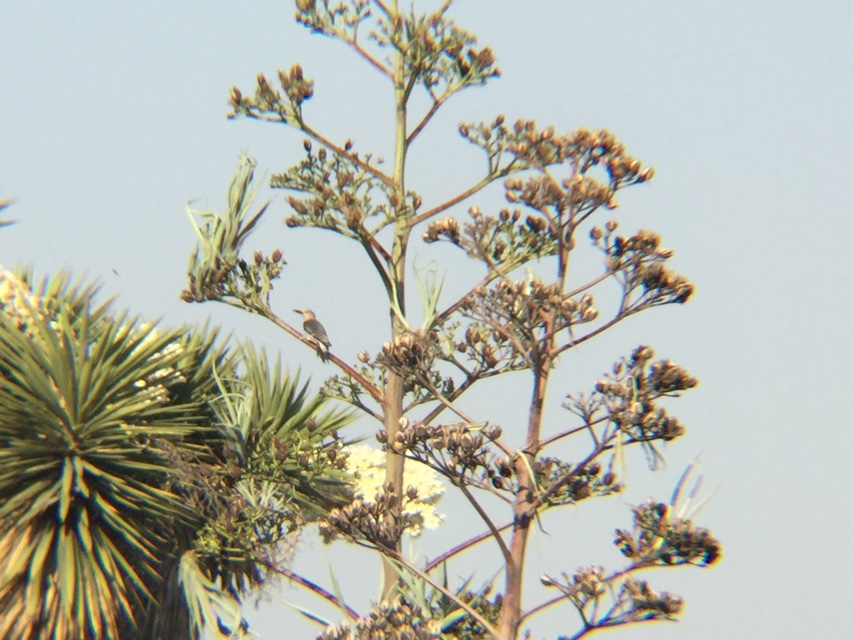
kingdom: Animalia
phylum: Chordata
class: Aves
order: Piciformes
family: Picidae
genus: Melanerpes
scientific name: Melanerpes aurifrons
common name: Golden-fronted woodpecker
